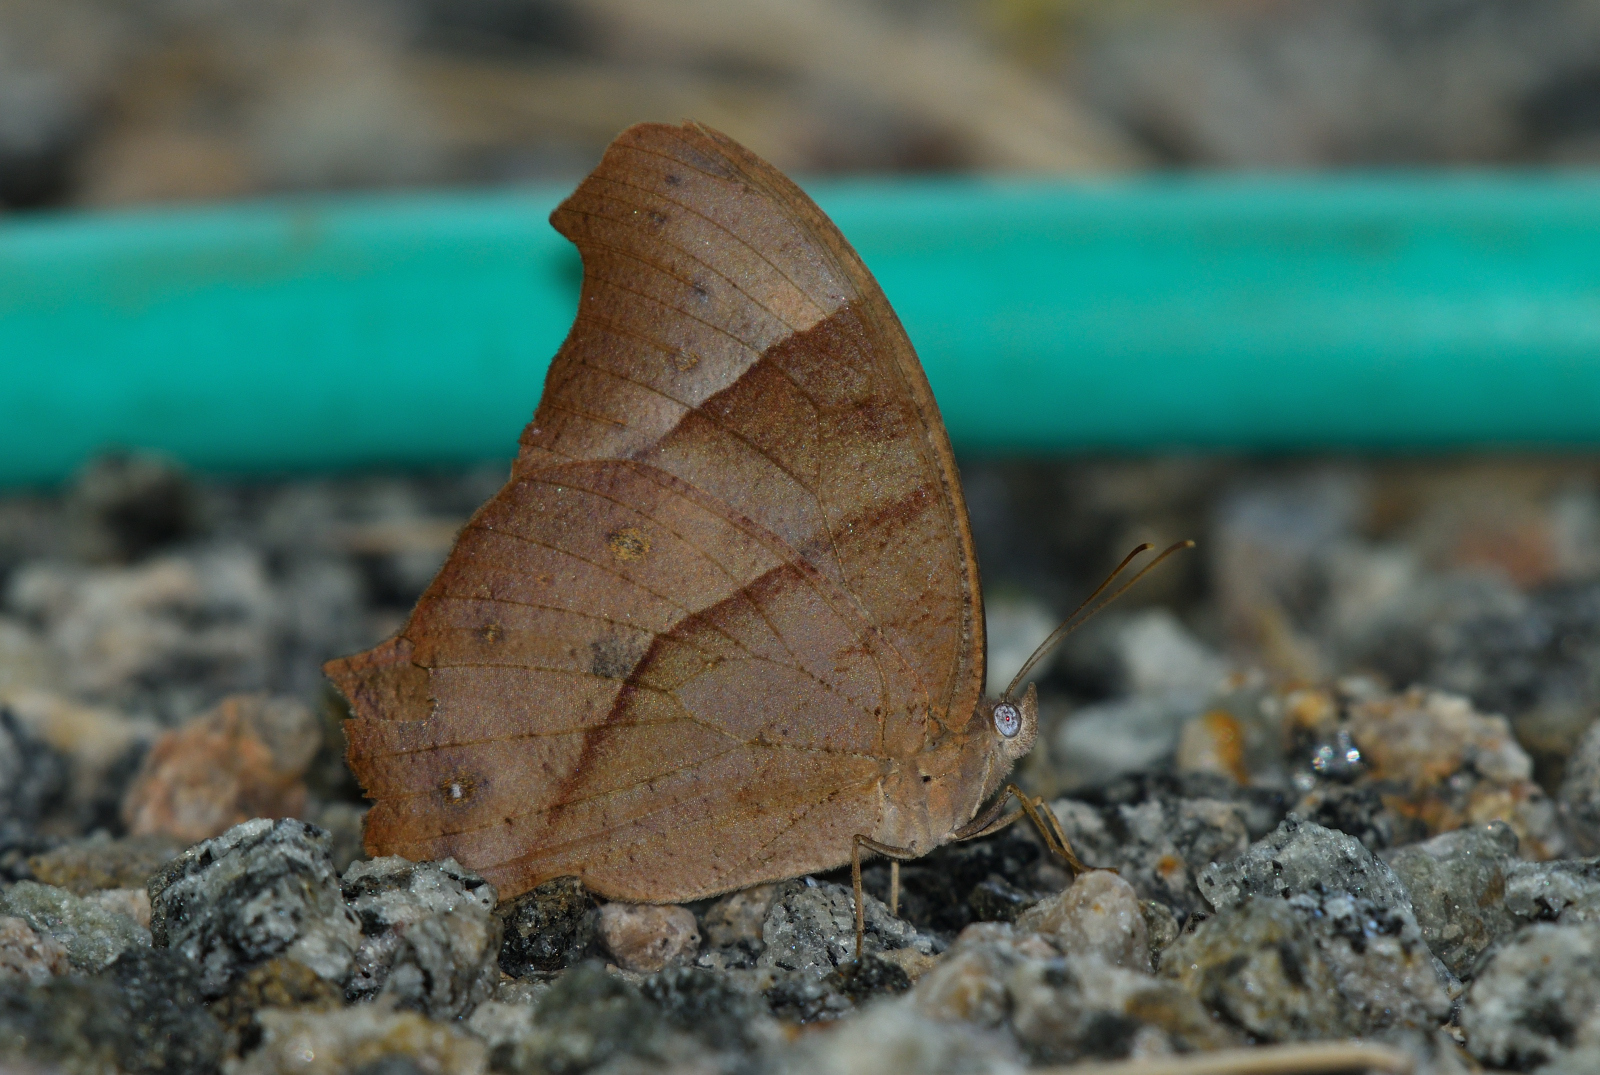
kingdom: Animalia
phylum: Arthropoda
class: Insecta
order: Lepidoptera
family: Nymphalidae
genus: Melanitis
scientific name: Melanitis leda
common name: Twilight brown
